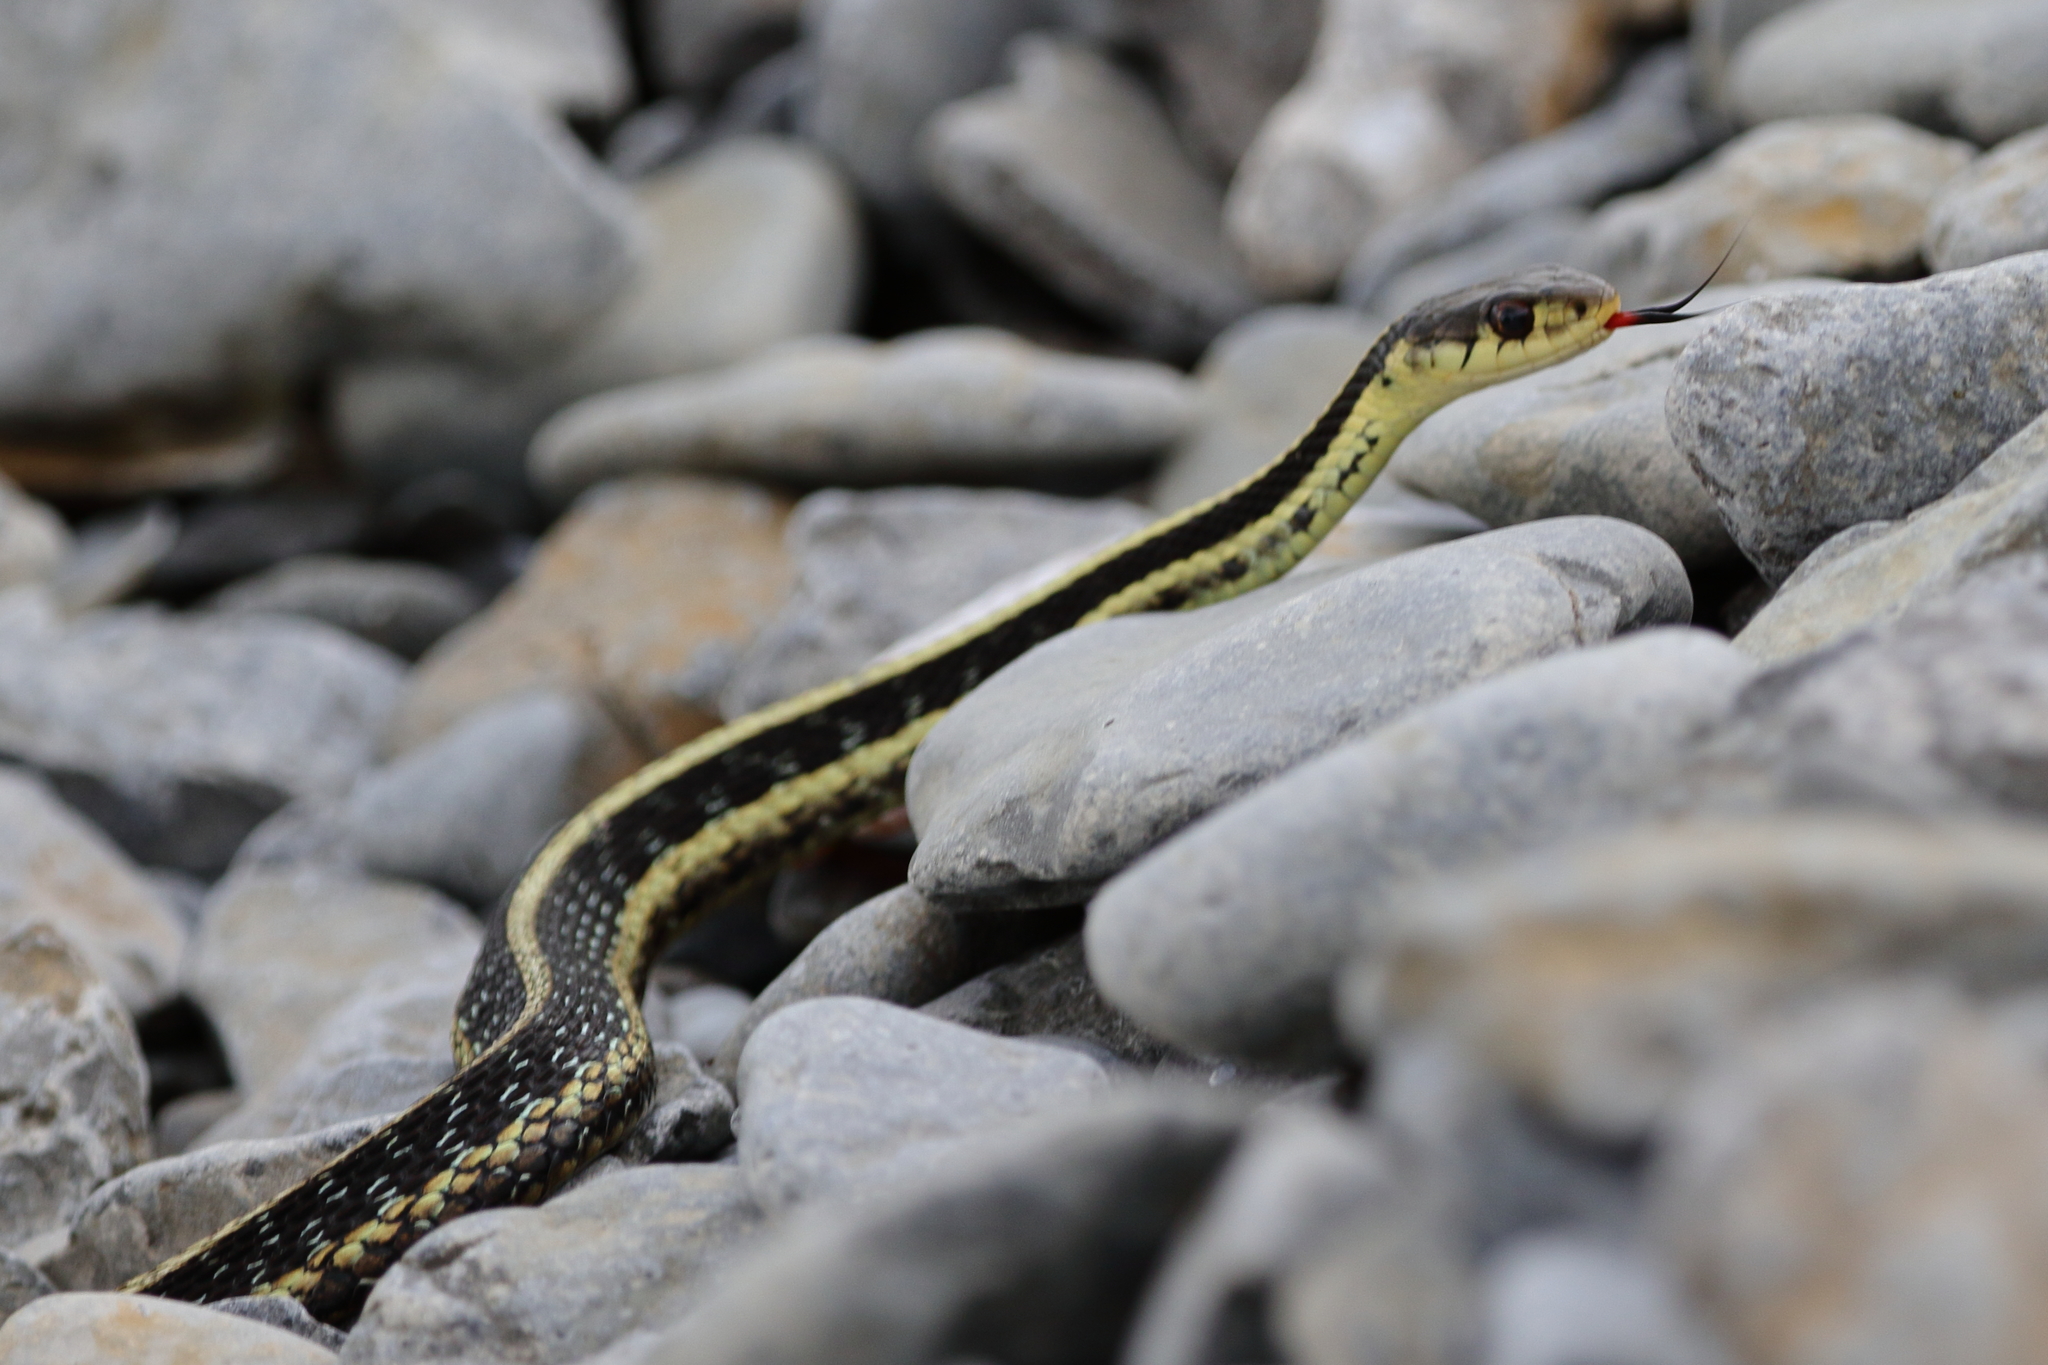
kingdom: Animalia
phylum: Chordata
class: Squamata
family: Colubridae
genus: Thamnophis
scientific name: Thamnophis sirtalis
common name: Common garter snake
